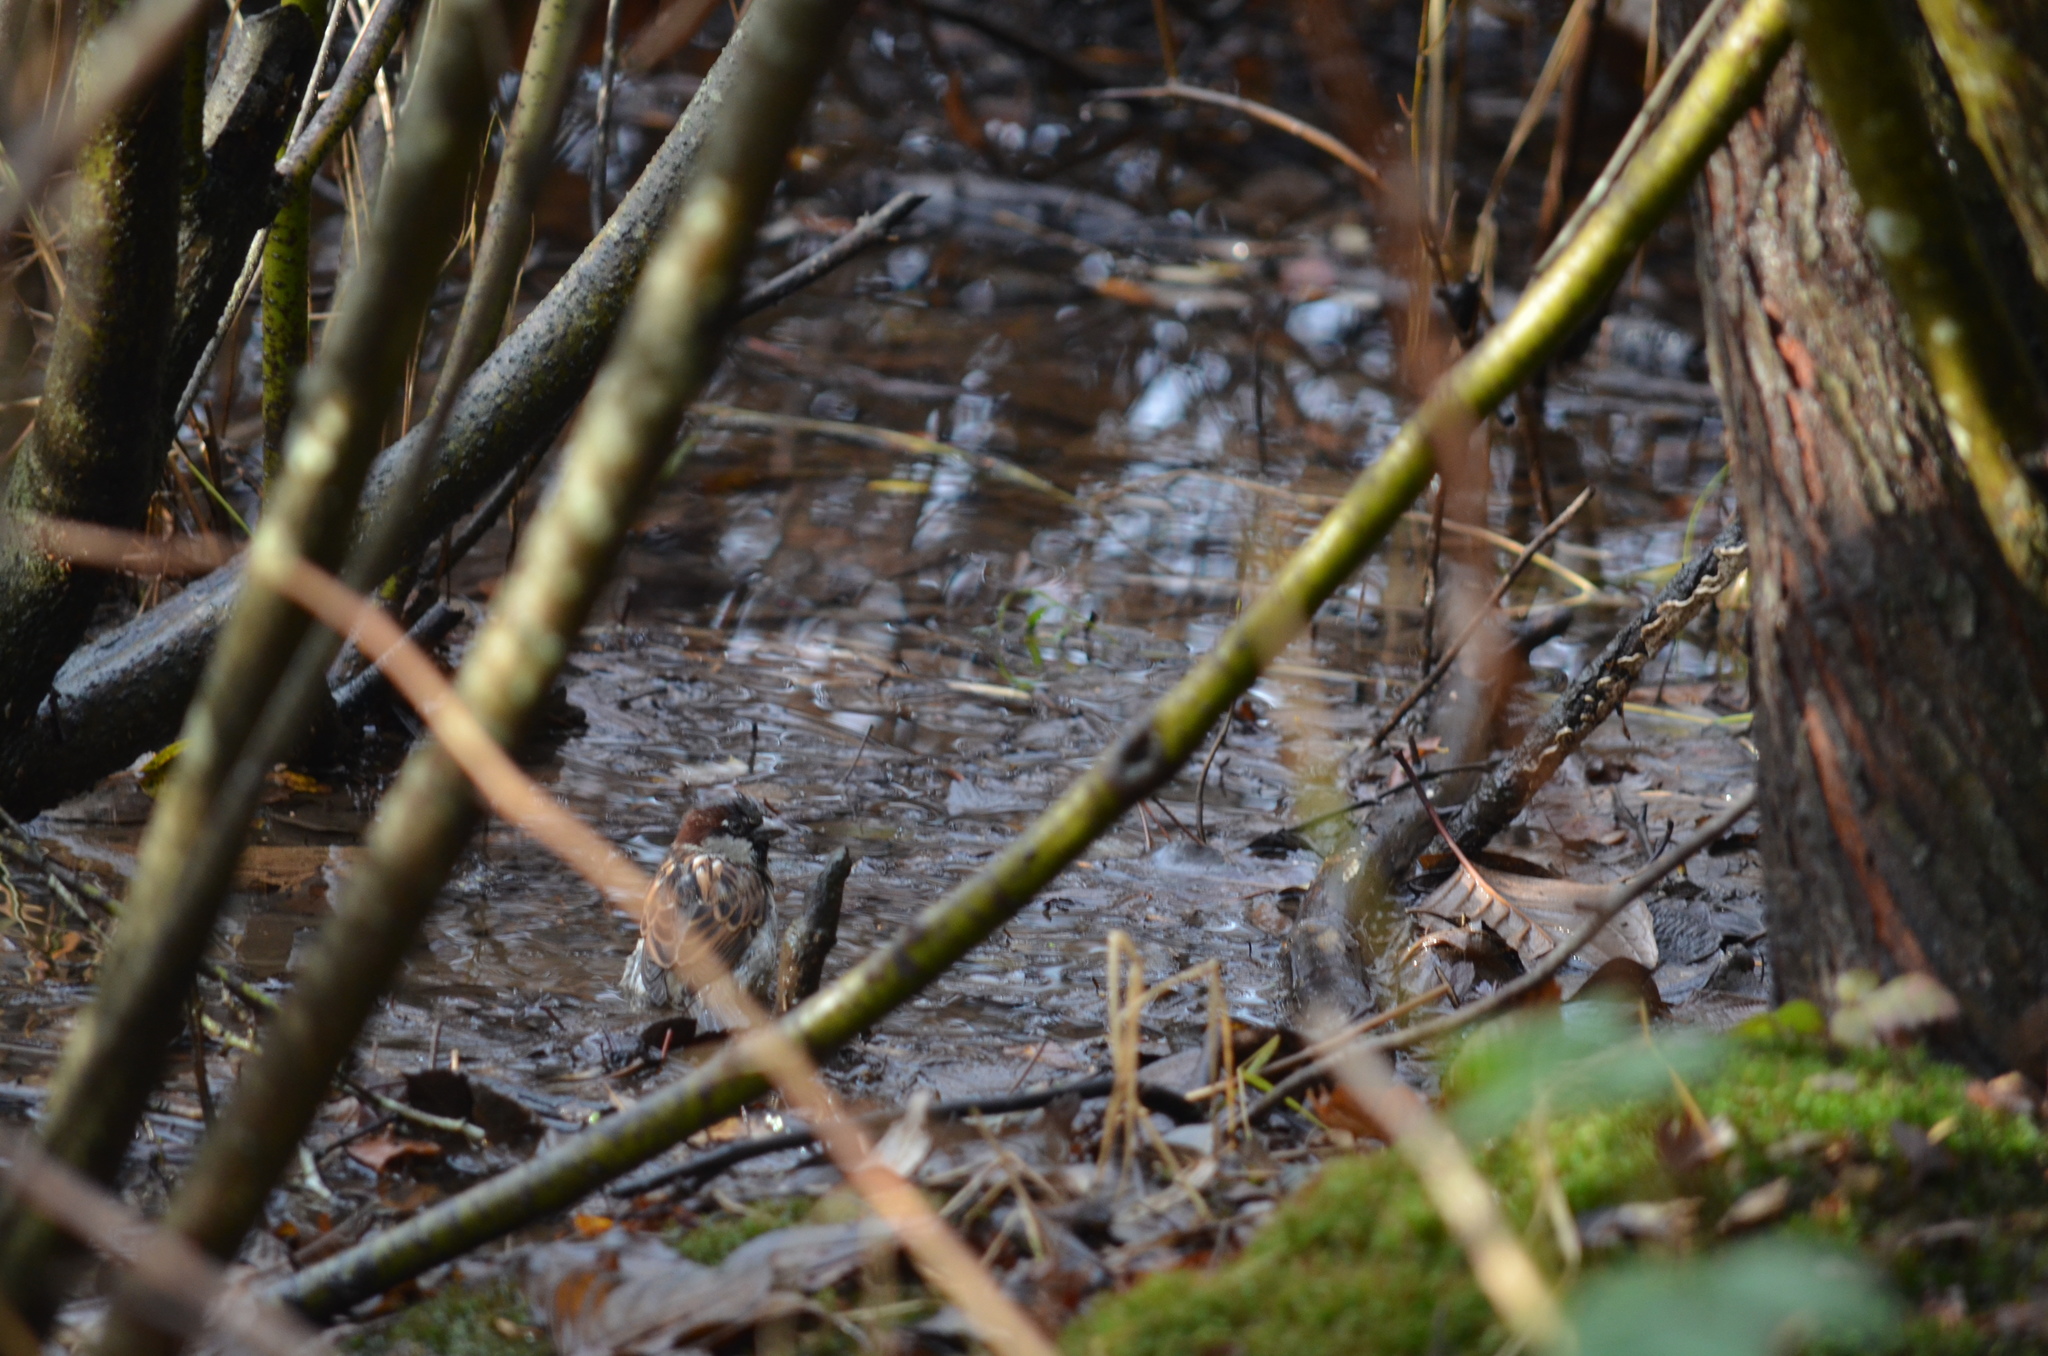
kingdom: Animalia
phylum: Chordata
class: Aves
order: Passeriformes
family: Passeridae
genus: Passer
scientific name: Passer domesticus
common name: House sparrow
